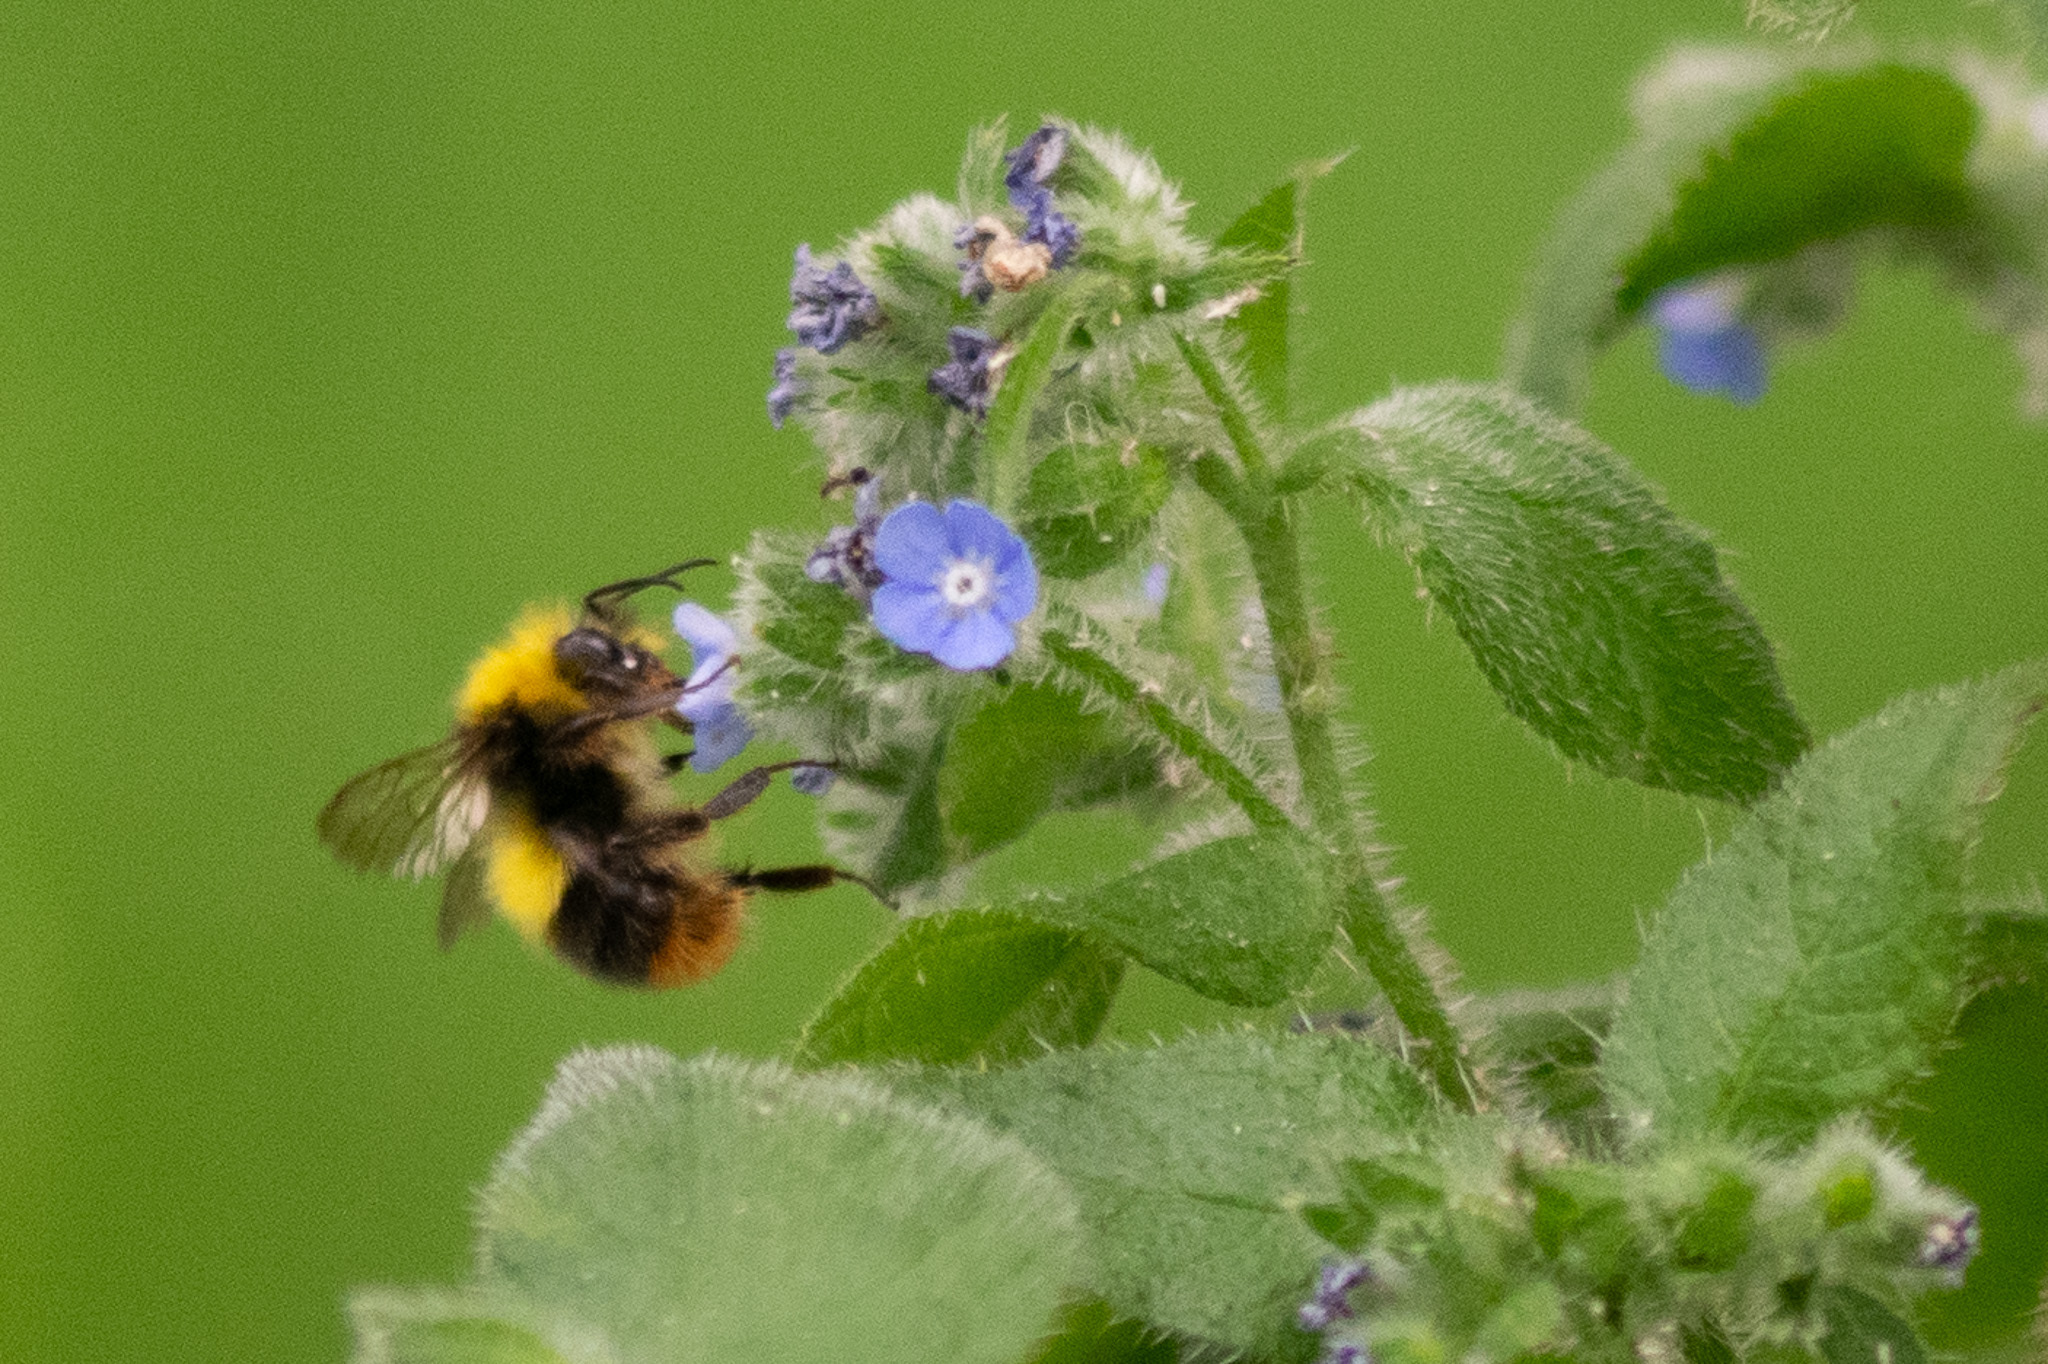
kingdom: Animalia
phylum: Arthropoda
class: Insecta
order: Hymenoptera
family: Apidae
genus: Bombus
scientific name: Bombus pratorum
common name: Early humble-bee
